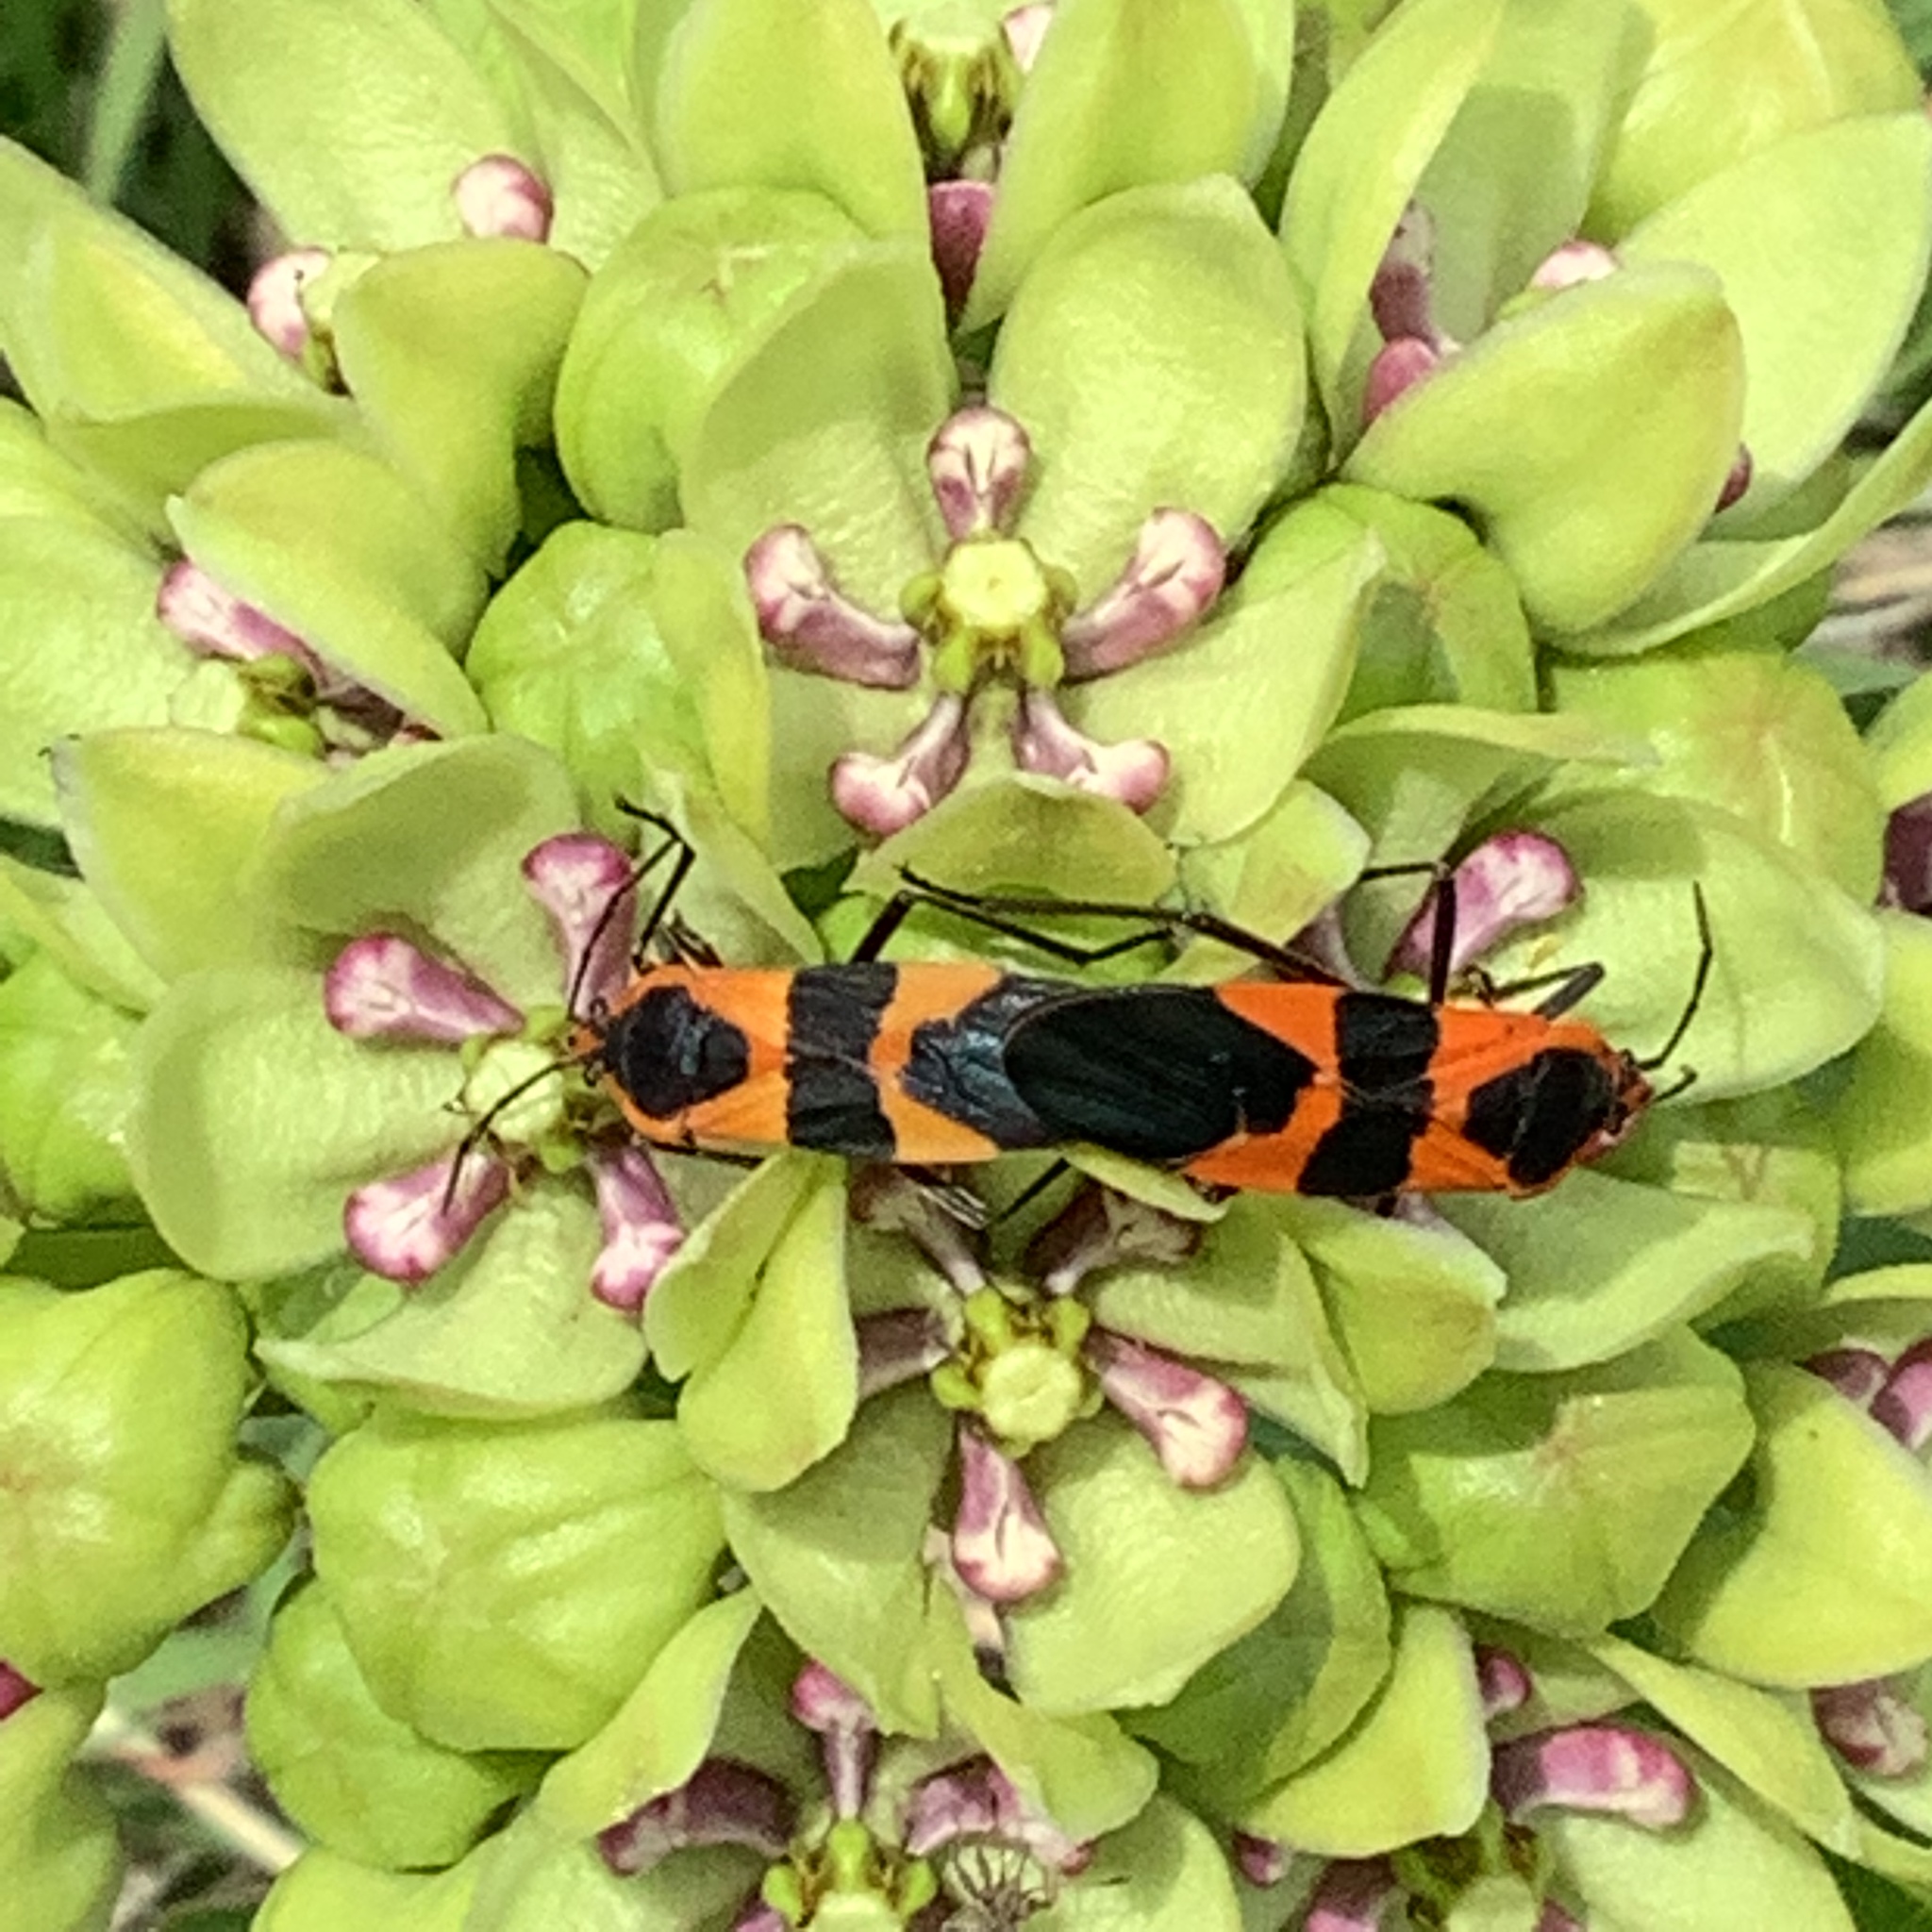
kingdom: Animalia
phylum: Arthropoda
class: Insecta
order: Hemiptera
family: Lygaeidae
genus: Oncopeltus
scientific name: Oncopeltus fasciatus
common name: Large milkweed bug
